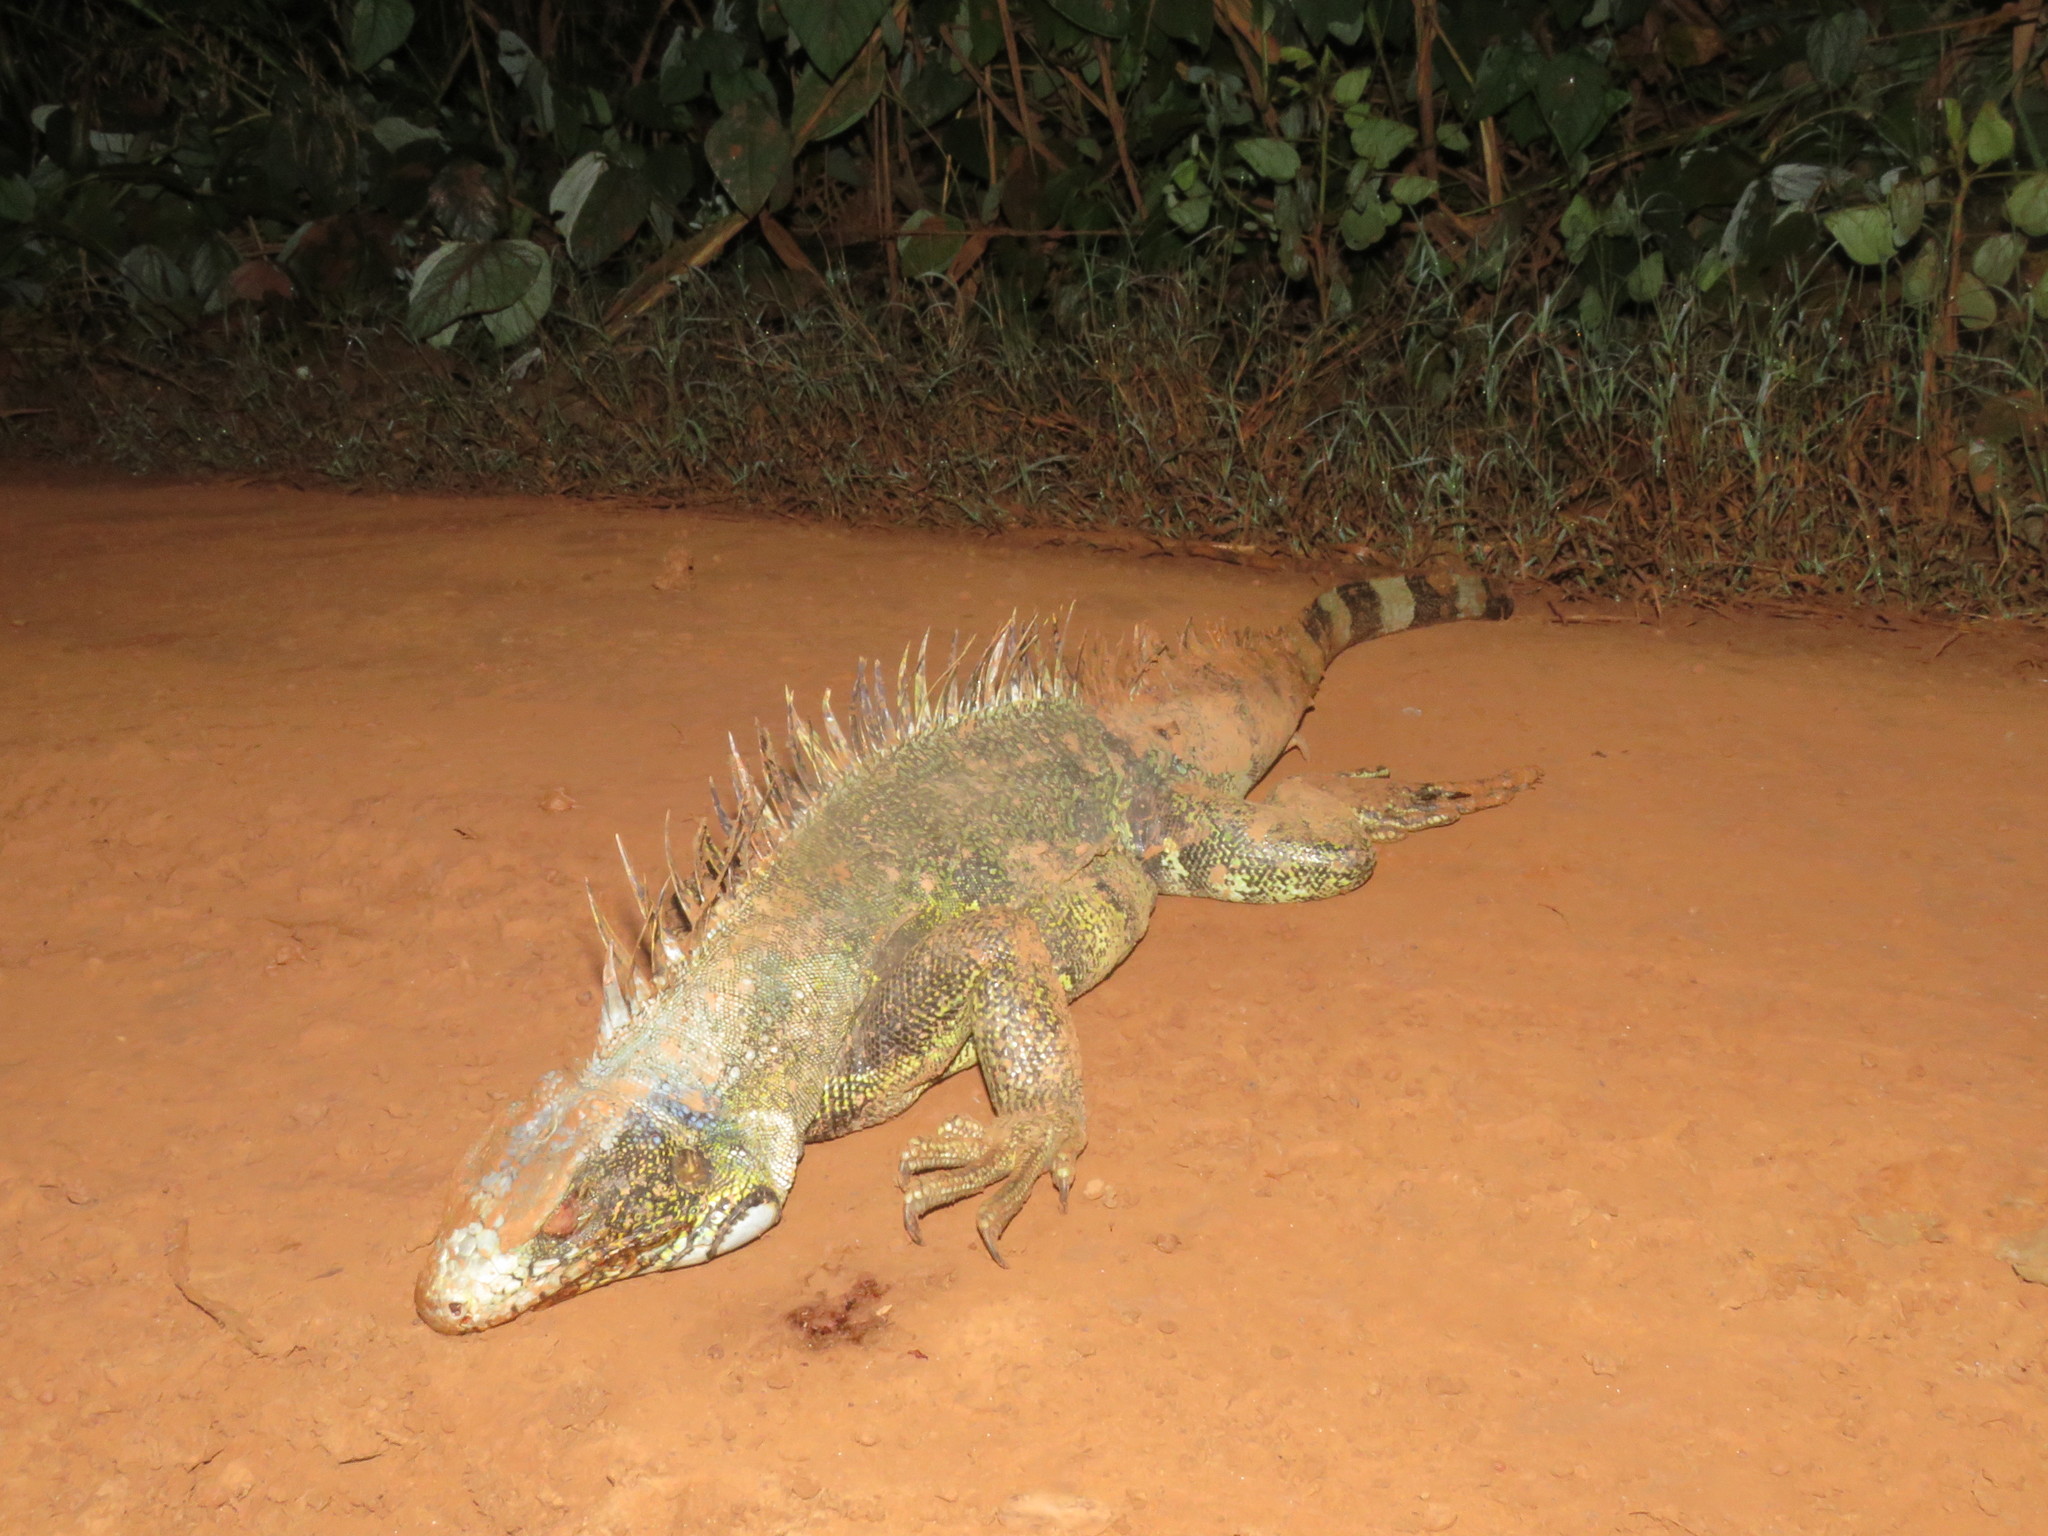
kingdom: Animalia
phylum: Chordata
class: Squamata
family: Iguanidae
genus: Iguana
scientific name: Iguana iguana
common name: Green iguana
